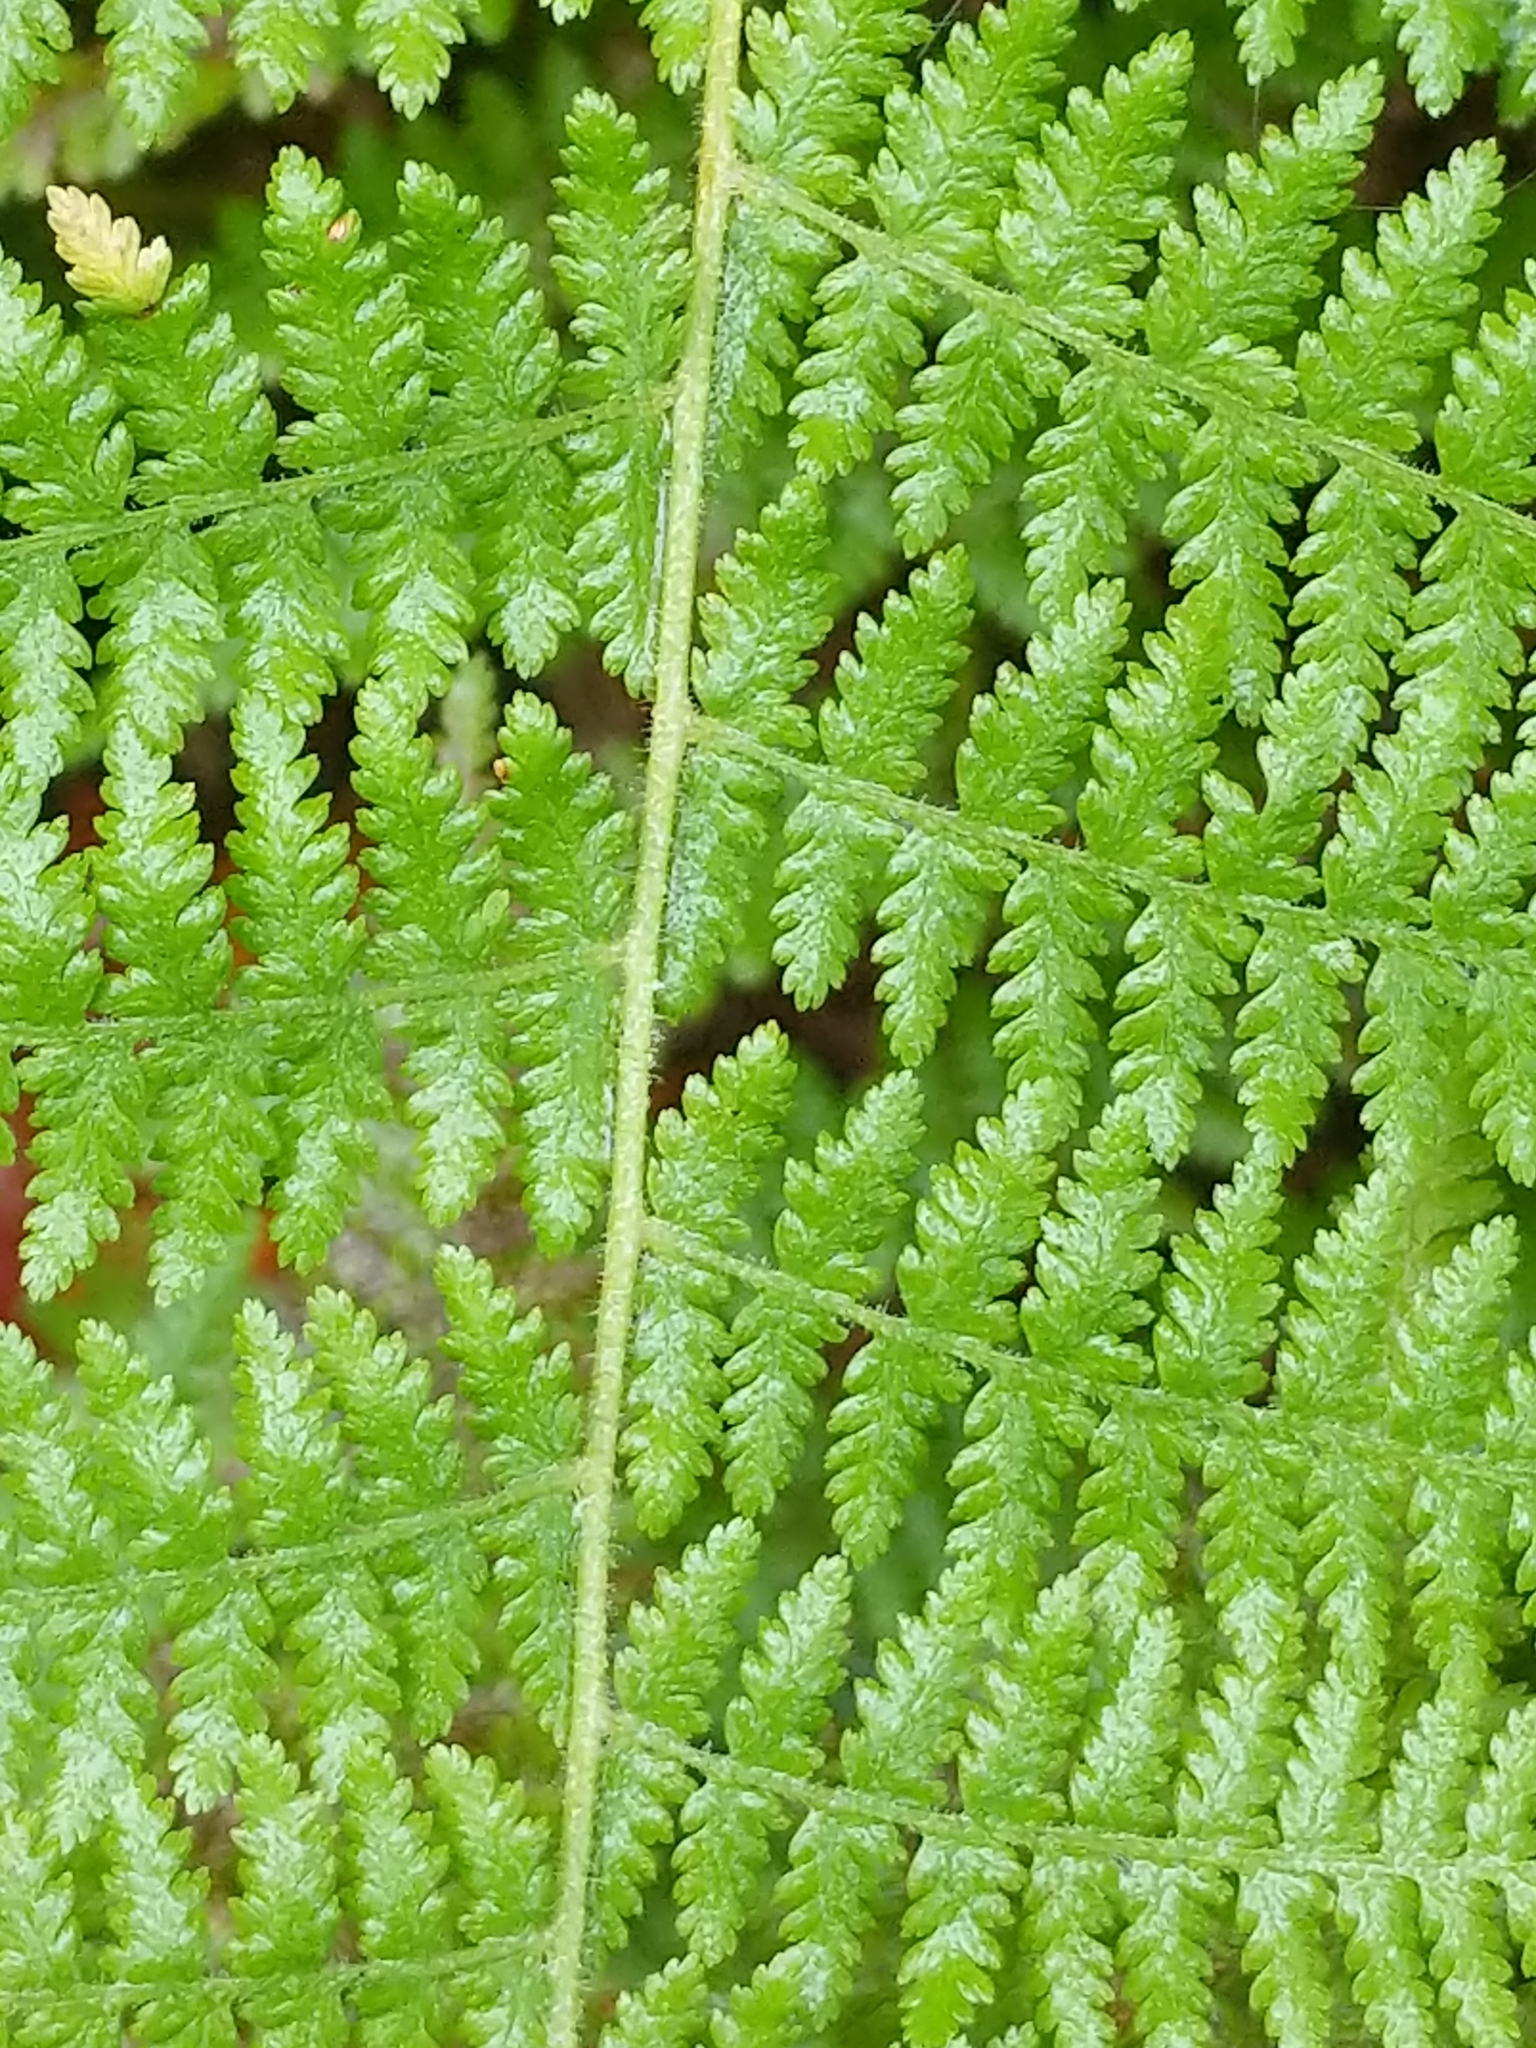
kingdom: Plantae
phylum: Tracheophyta
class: Polypodiopsida
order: Polypodiales
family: Dennstaedtiaceae
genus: Sitobolium
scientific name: Sitobolium punctilobum
